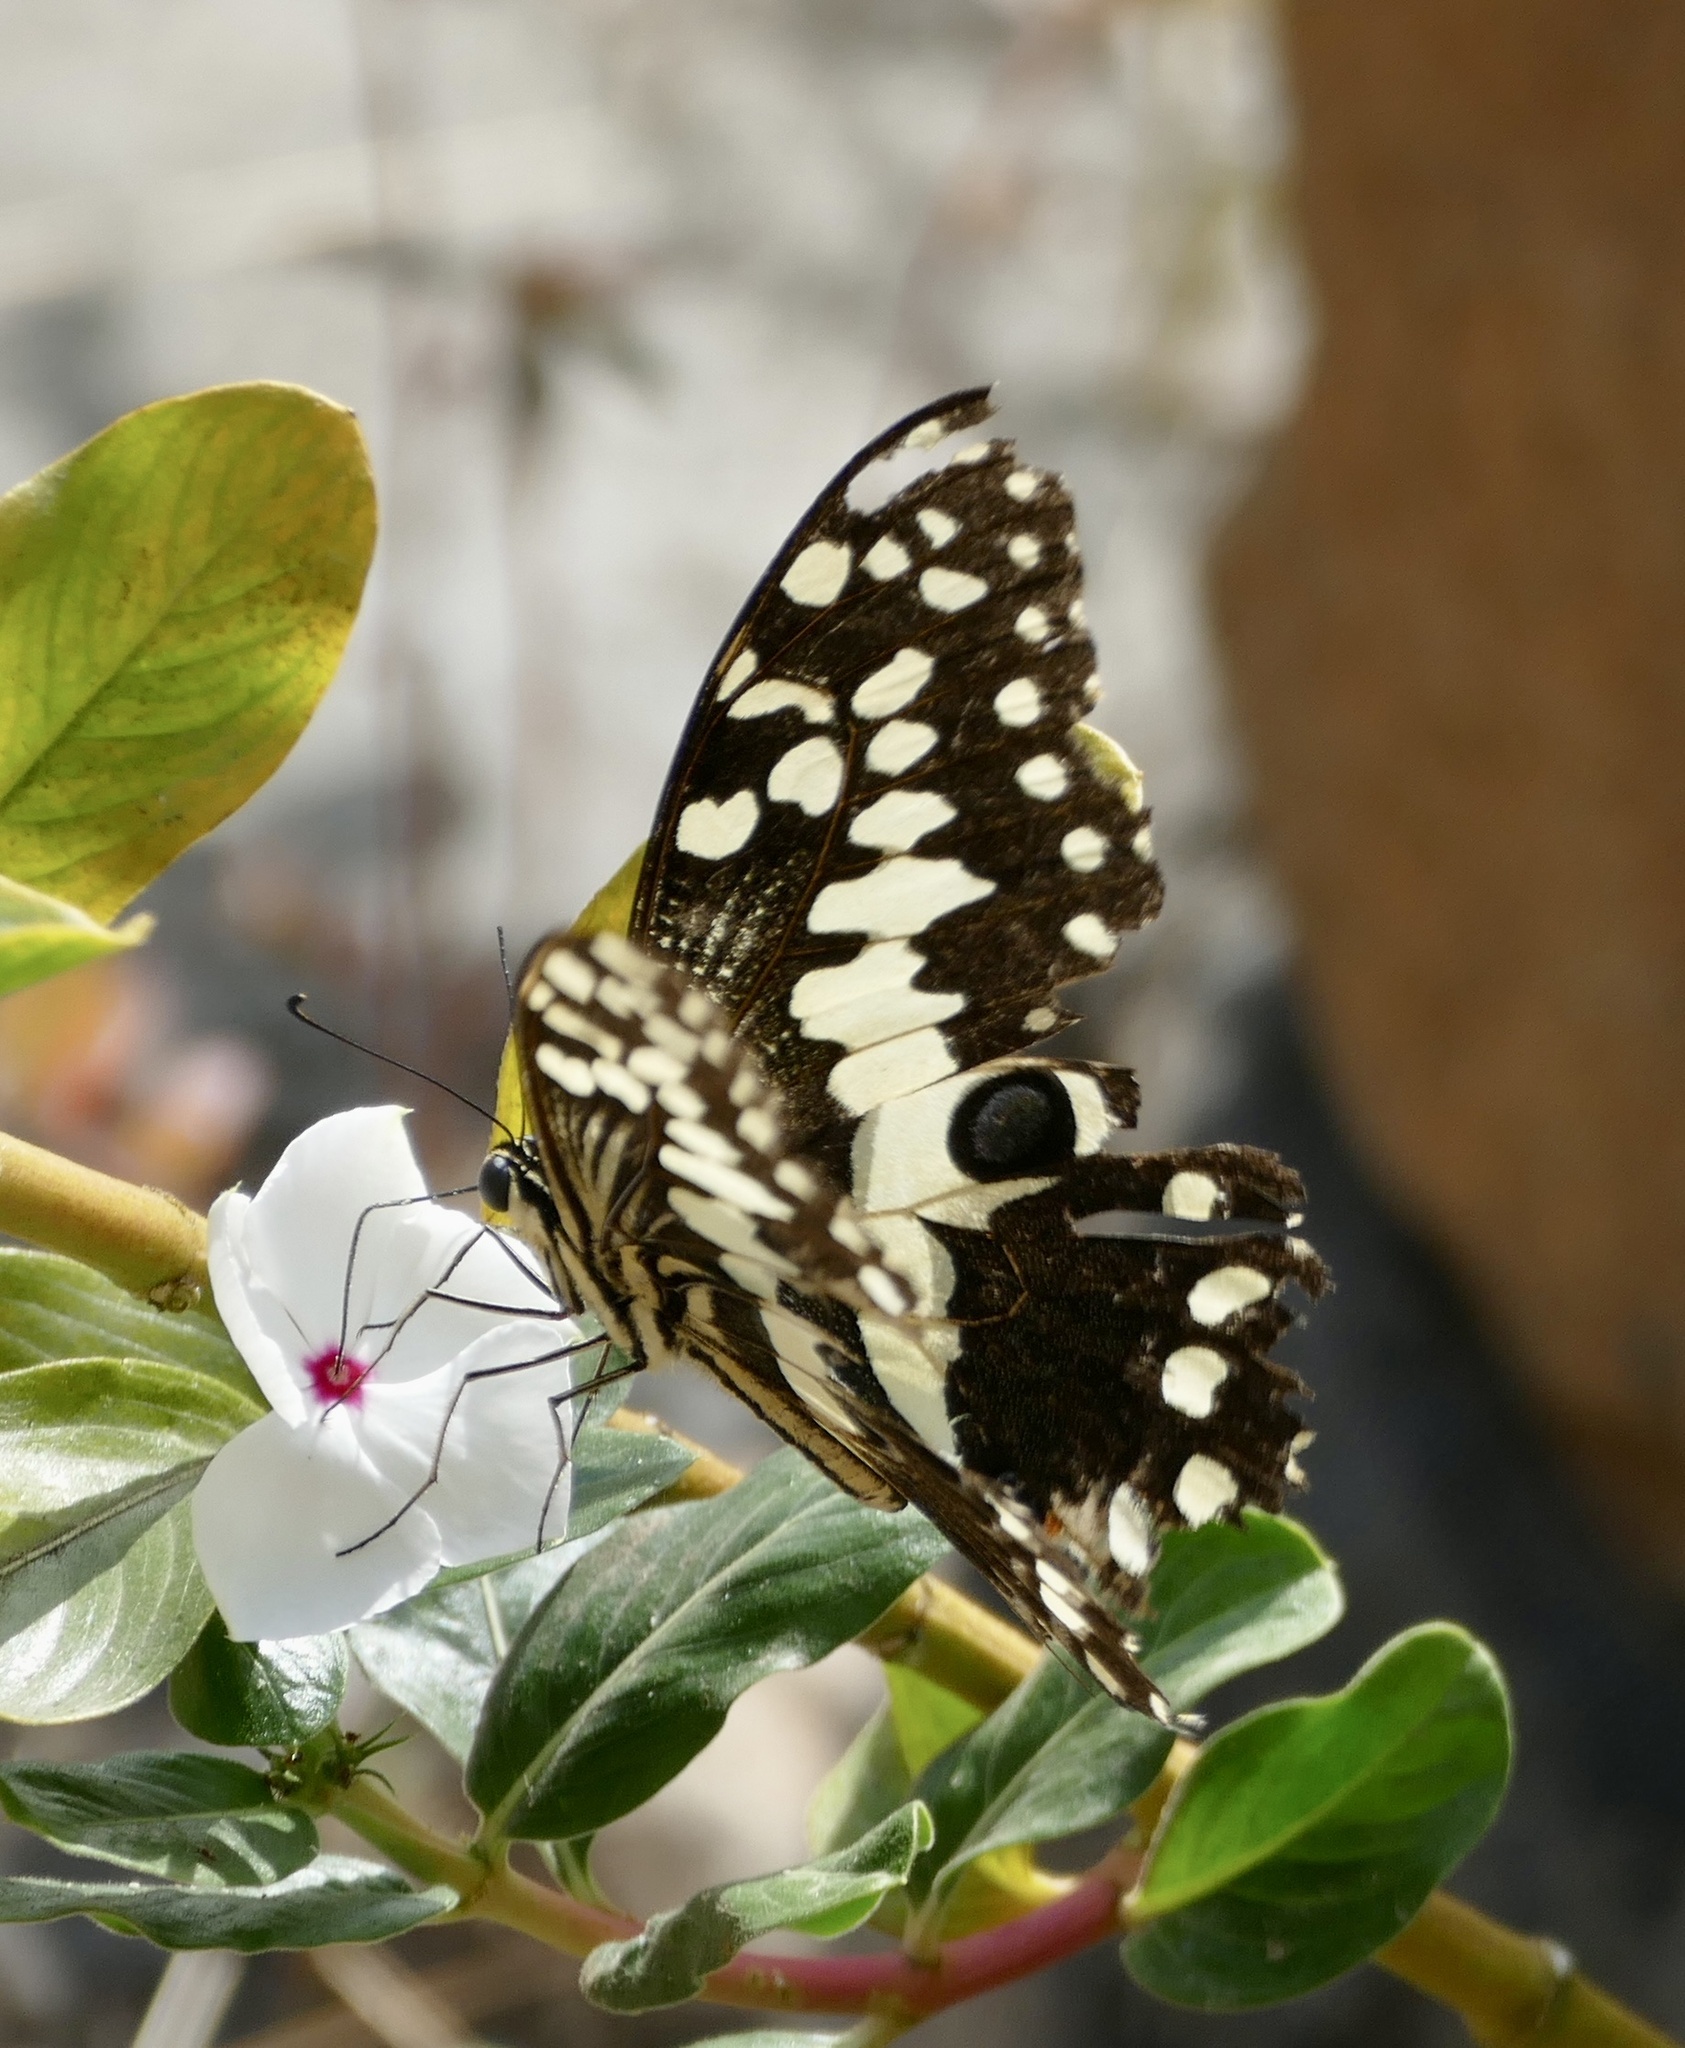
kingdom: Animalia
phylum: Arthropoda
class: Insecta
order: Lepidoptera
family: Papilionidae
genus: Papilio
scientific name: Papilio demodocus
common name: Christmas butterfly
